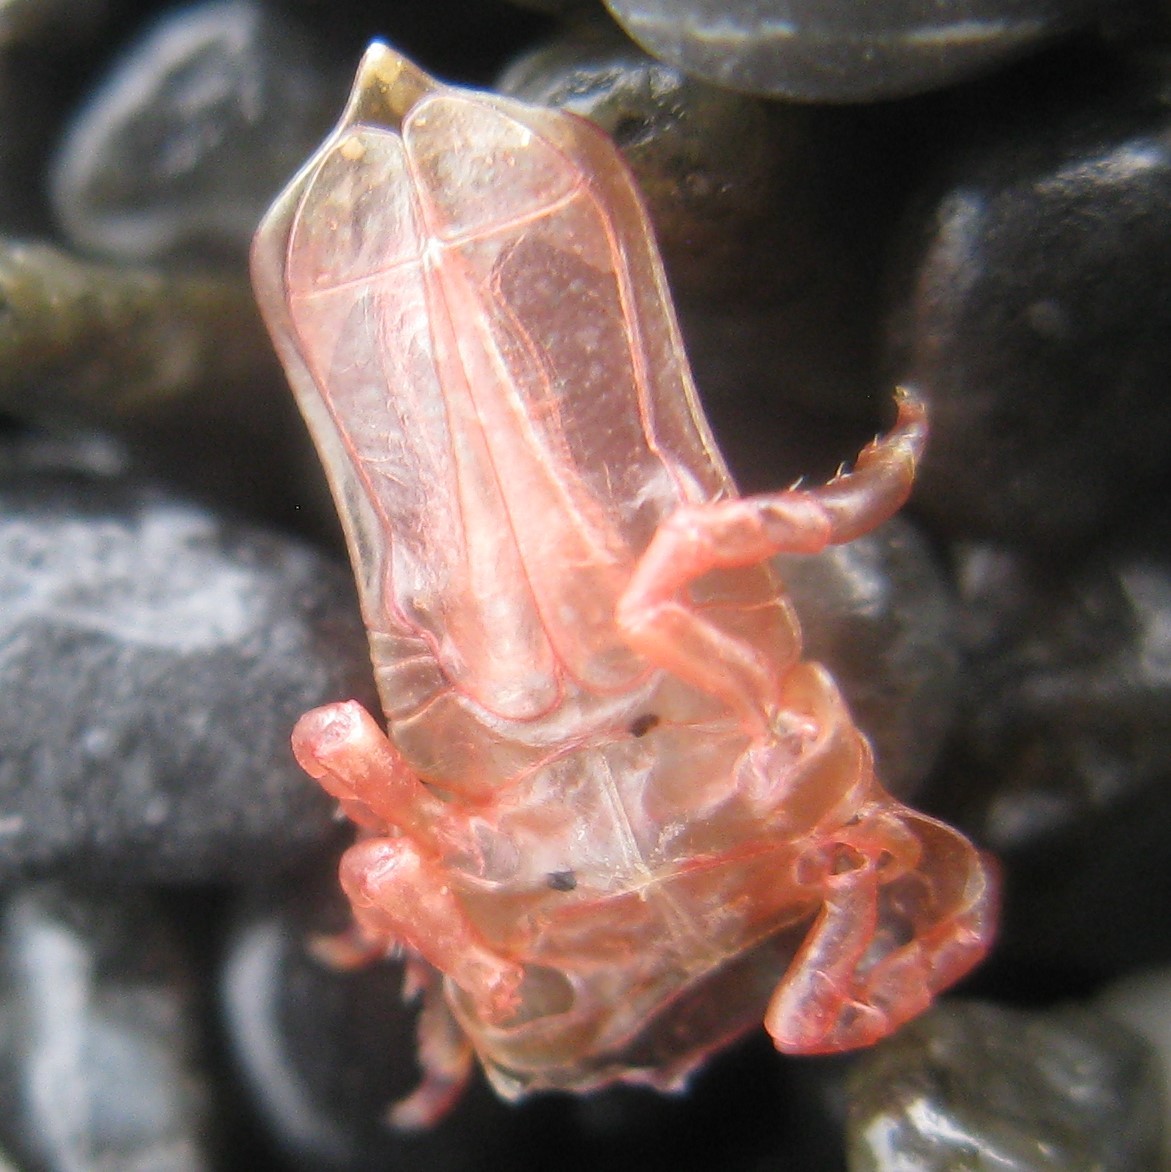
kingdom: Animalia
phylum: Arthropoda
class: Malacostraca
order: Isopoda
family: Idoteidae
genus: Euidotea
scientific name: Euidotea durvillei
